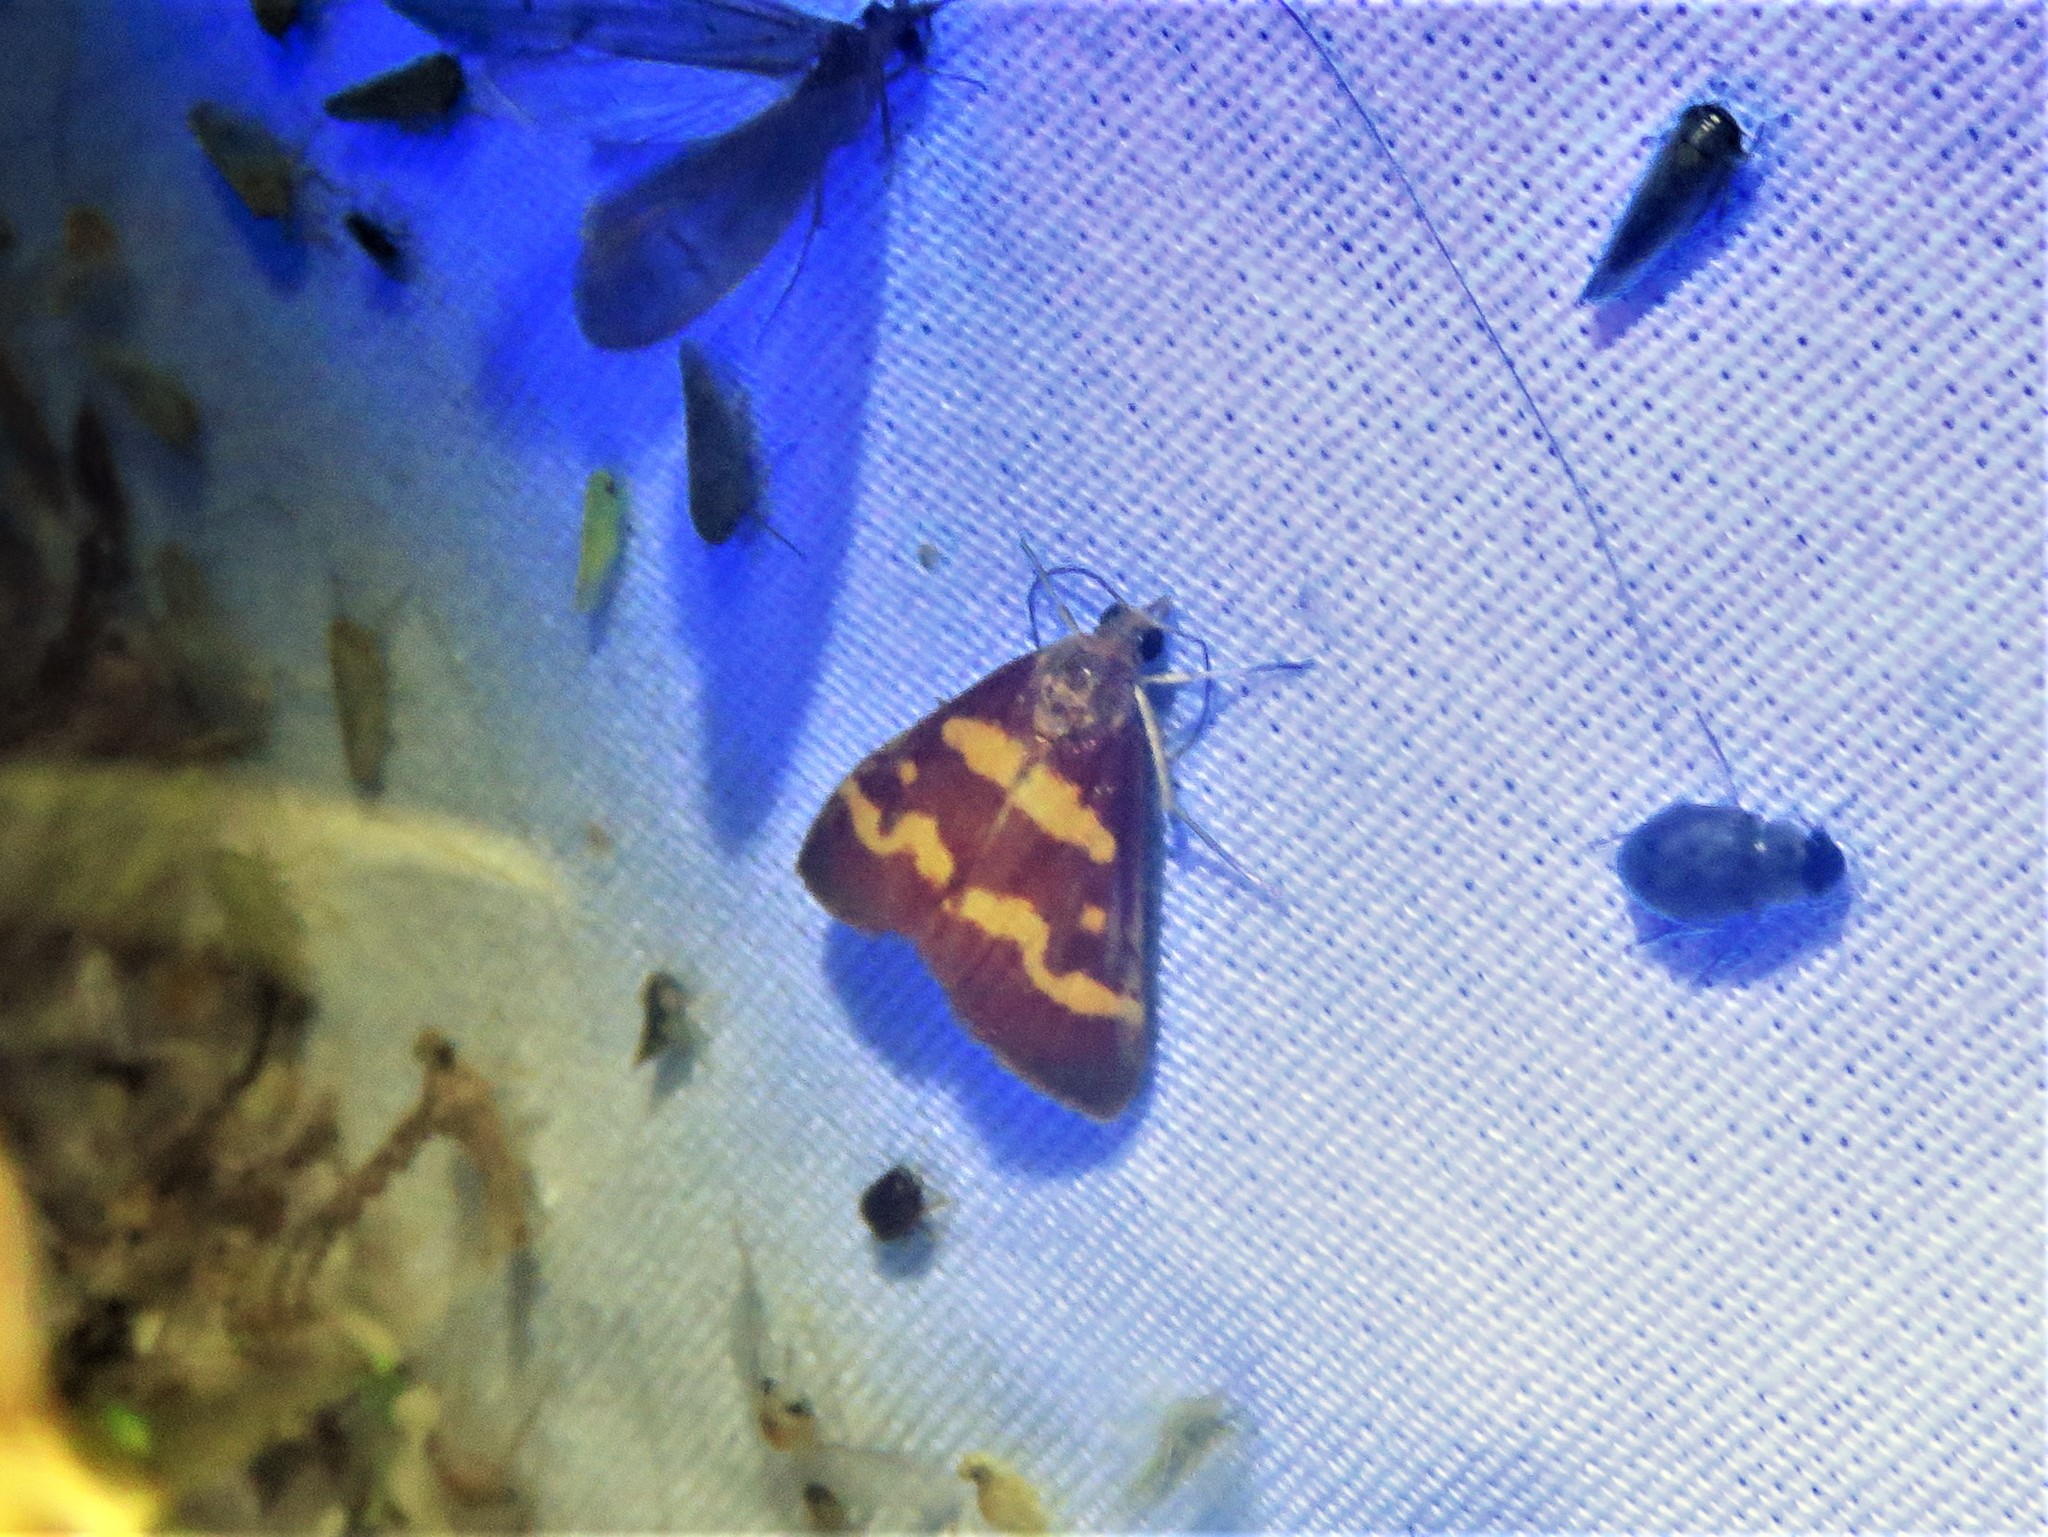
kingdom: Animalia
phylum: Arthropoda
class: Insecta
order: Lepidoptera
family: Crambidae
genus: Pyrausta
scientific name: Pyrausta tyralis
